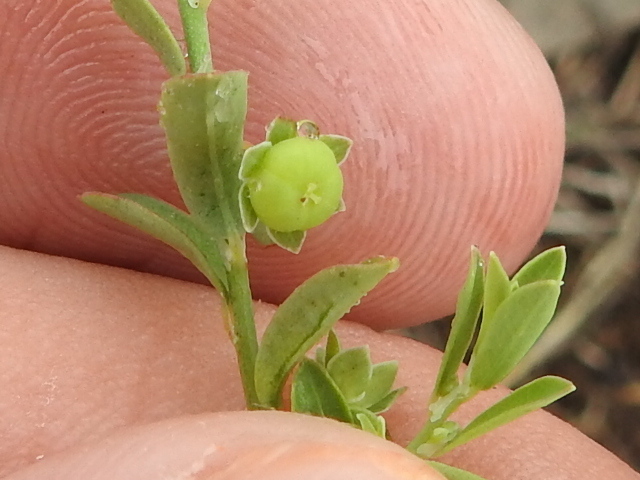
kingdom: Plantae
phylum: Tracheophyta
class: Magnoliopsida
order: Malpighiales
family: Phyllanthaceae
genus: Phyllanthus
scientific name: Phyllanthus polygonoides
